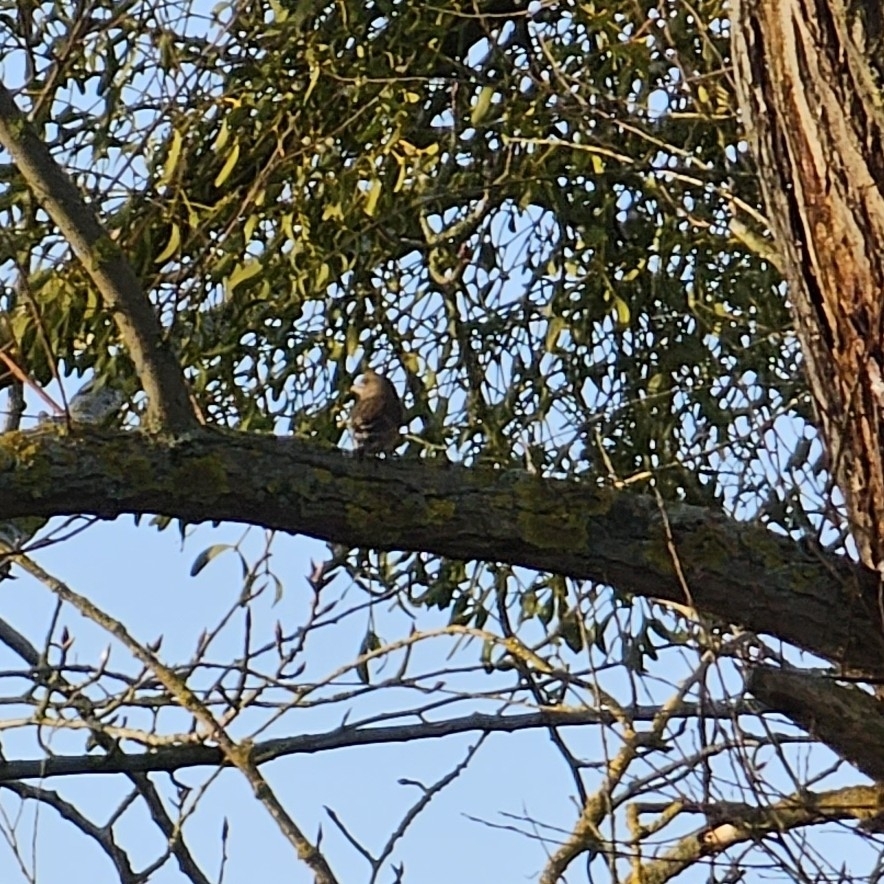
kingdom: Plantae
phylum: Tracheophyta
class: Liliopsida
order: Poales
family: Poaceae
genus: Chloris
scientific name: Chloris chloris
